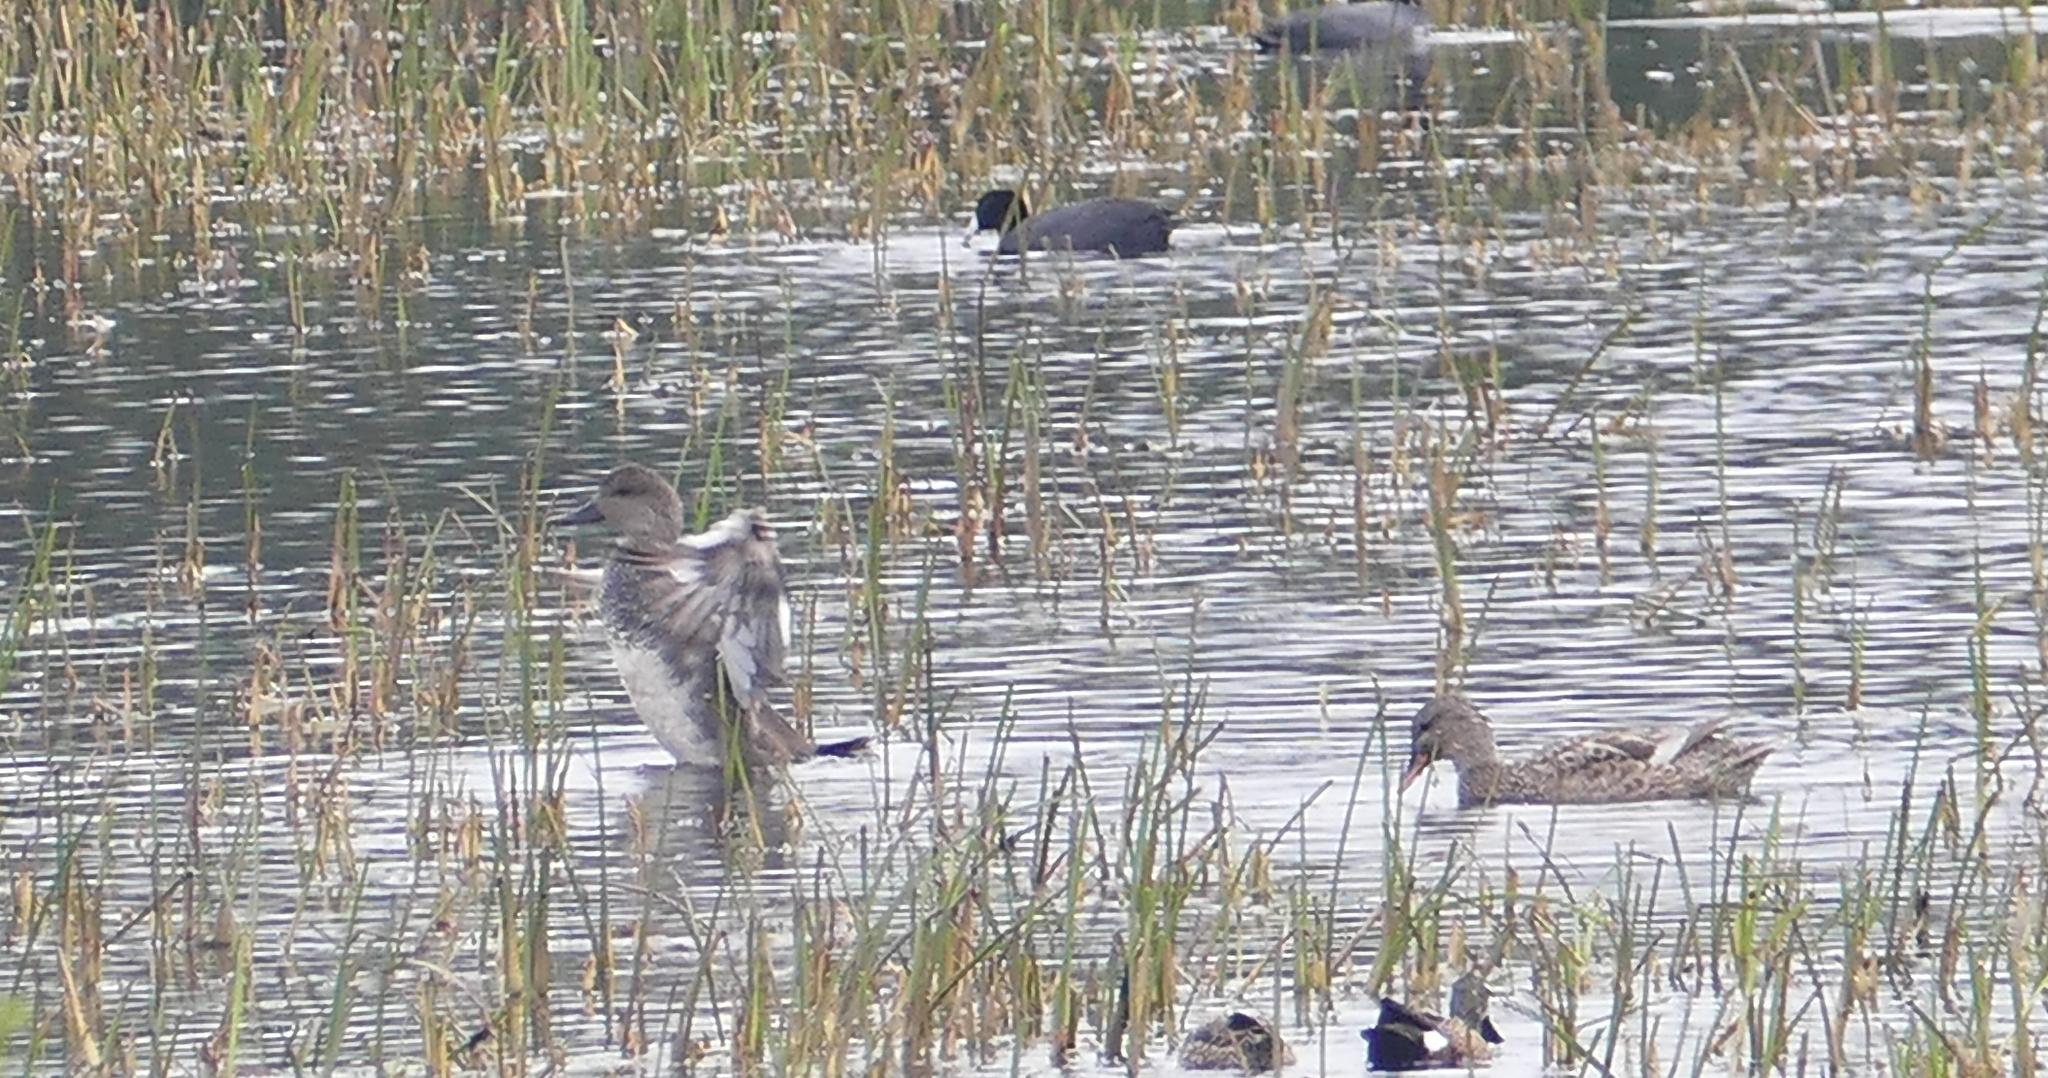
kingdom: Animalia
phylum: Chordata
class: Aves
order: Gruiformes
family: Rallidae
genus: Fulica
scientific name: Fulica americana
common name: American coot
